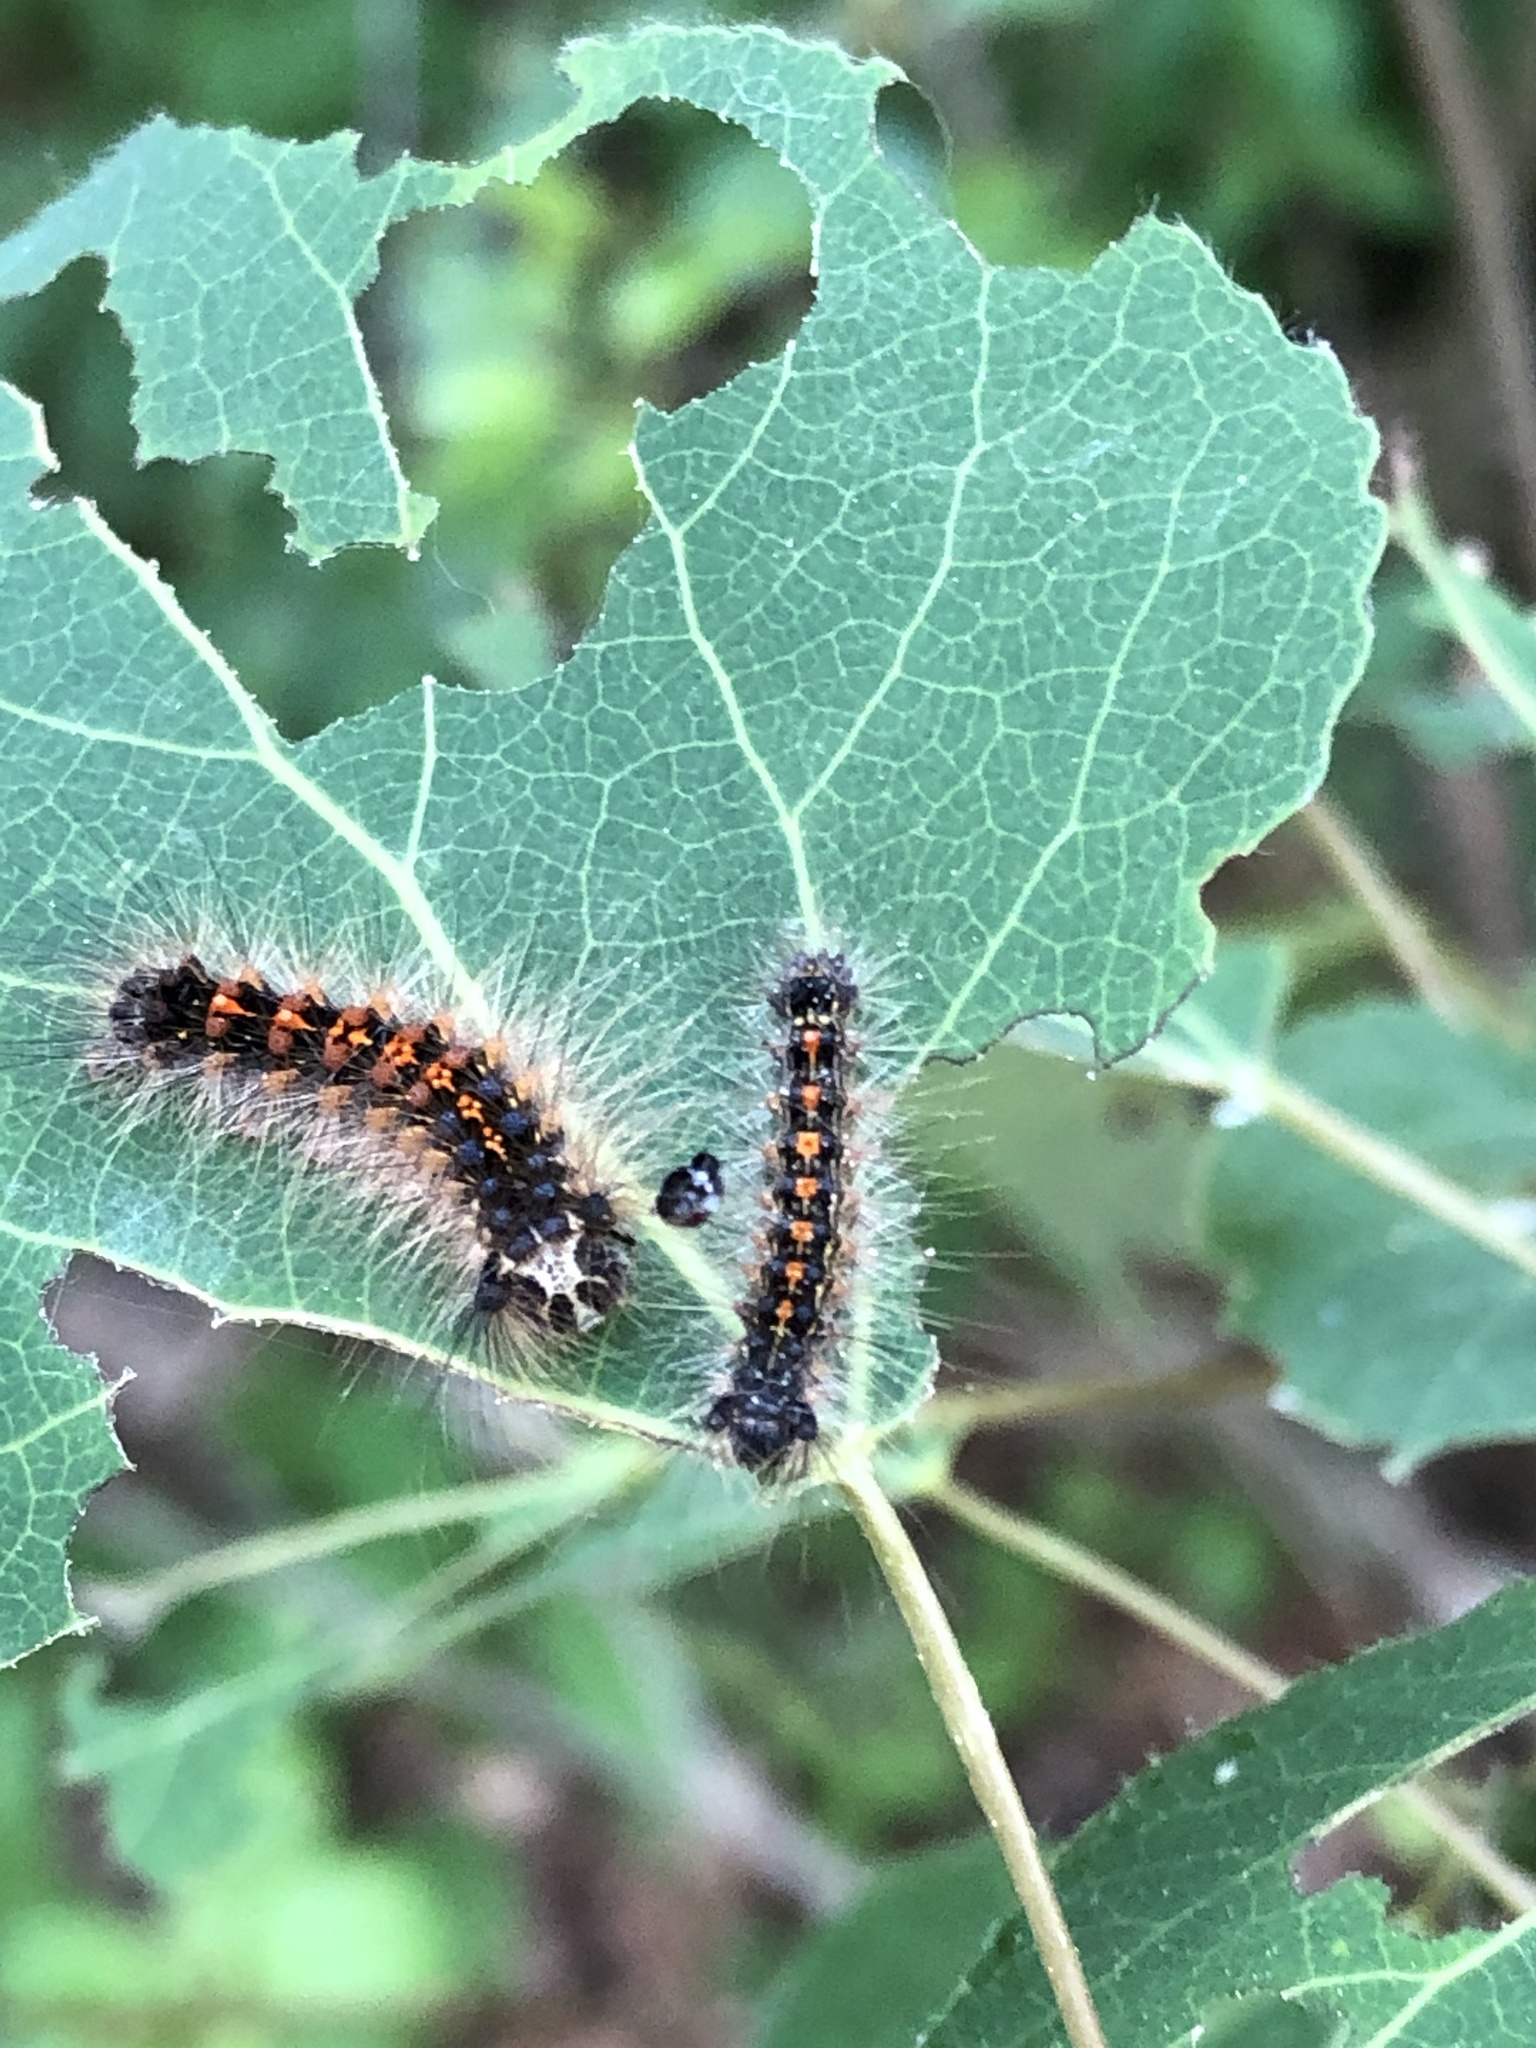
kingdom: Animalia
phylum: Arthropoda
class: Insecta
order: Lepidoptera
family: Erebidae
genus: Lymantria
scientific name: Lymantria dispar
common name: Gypsy moth
